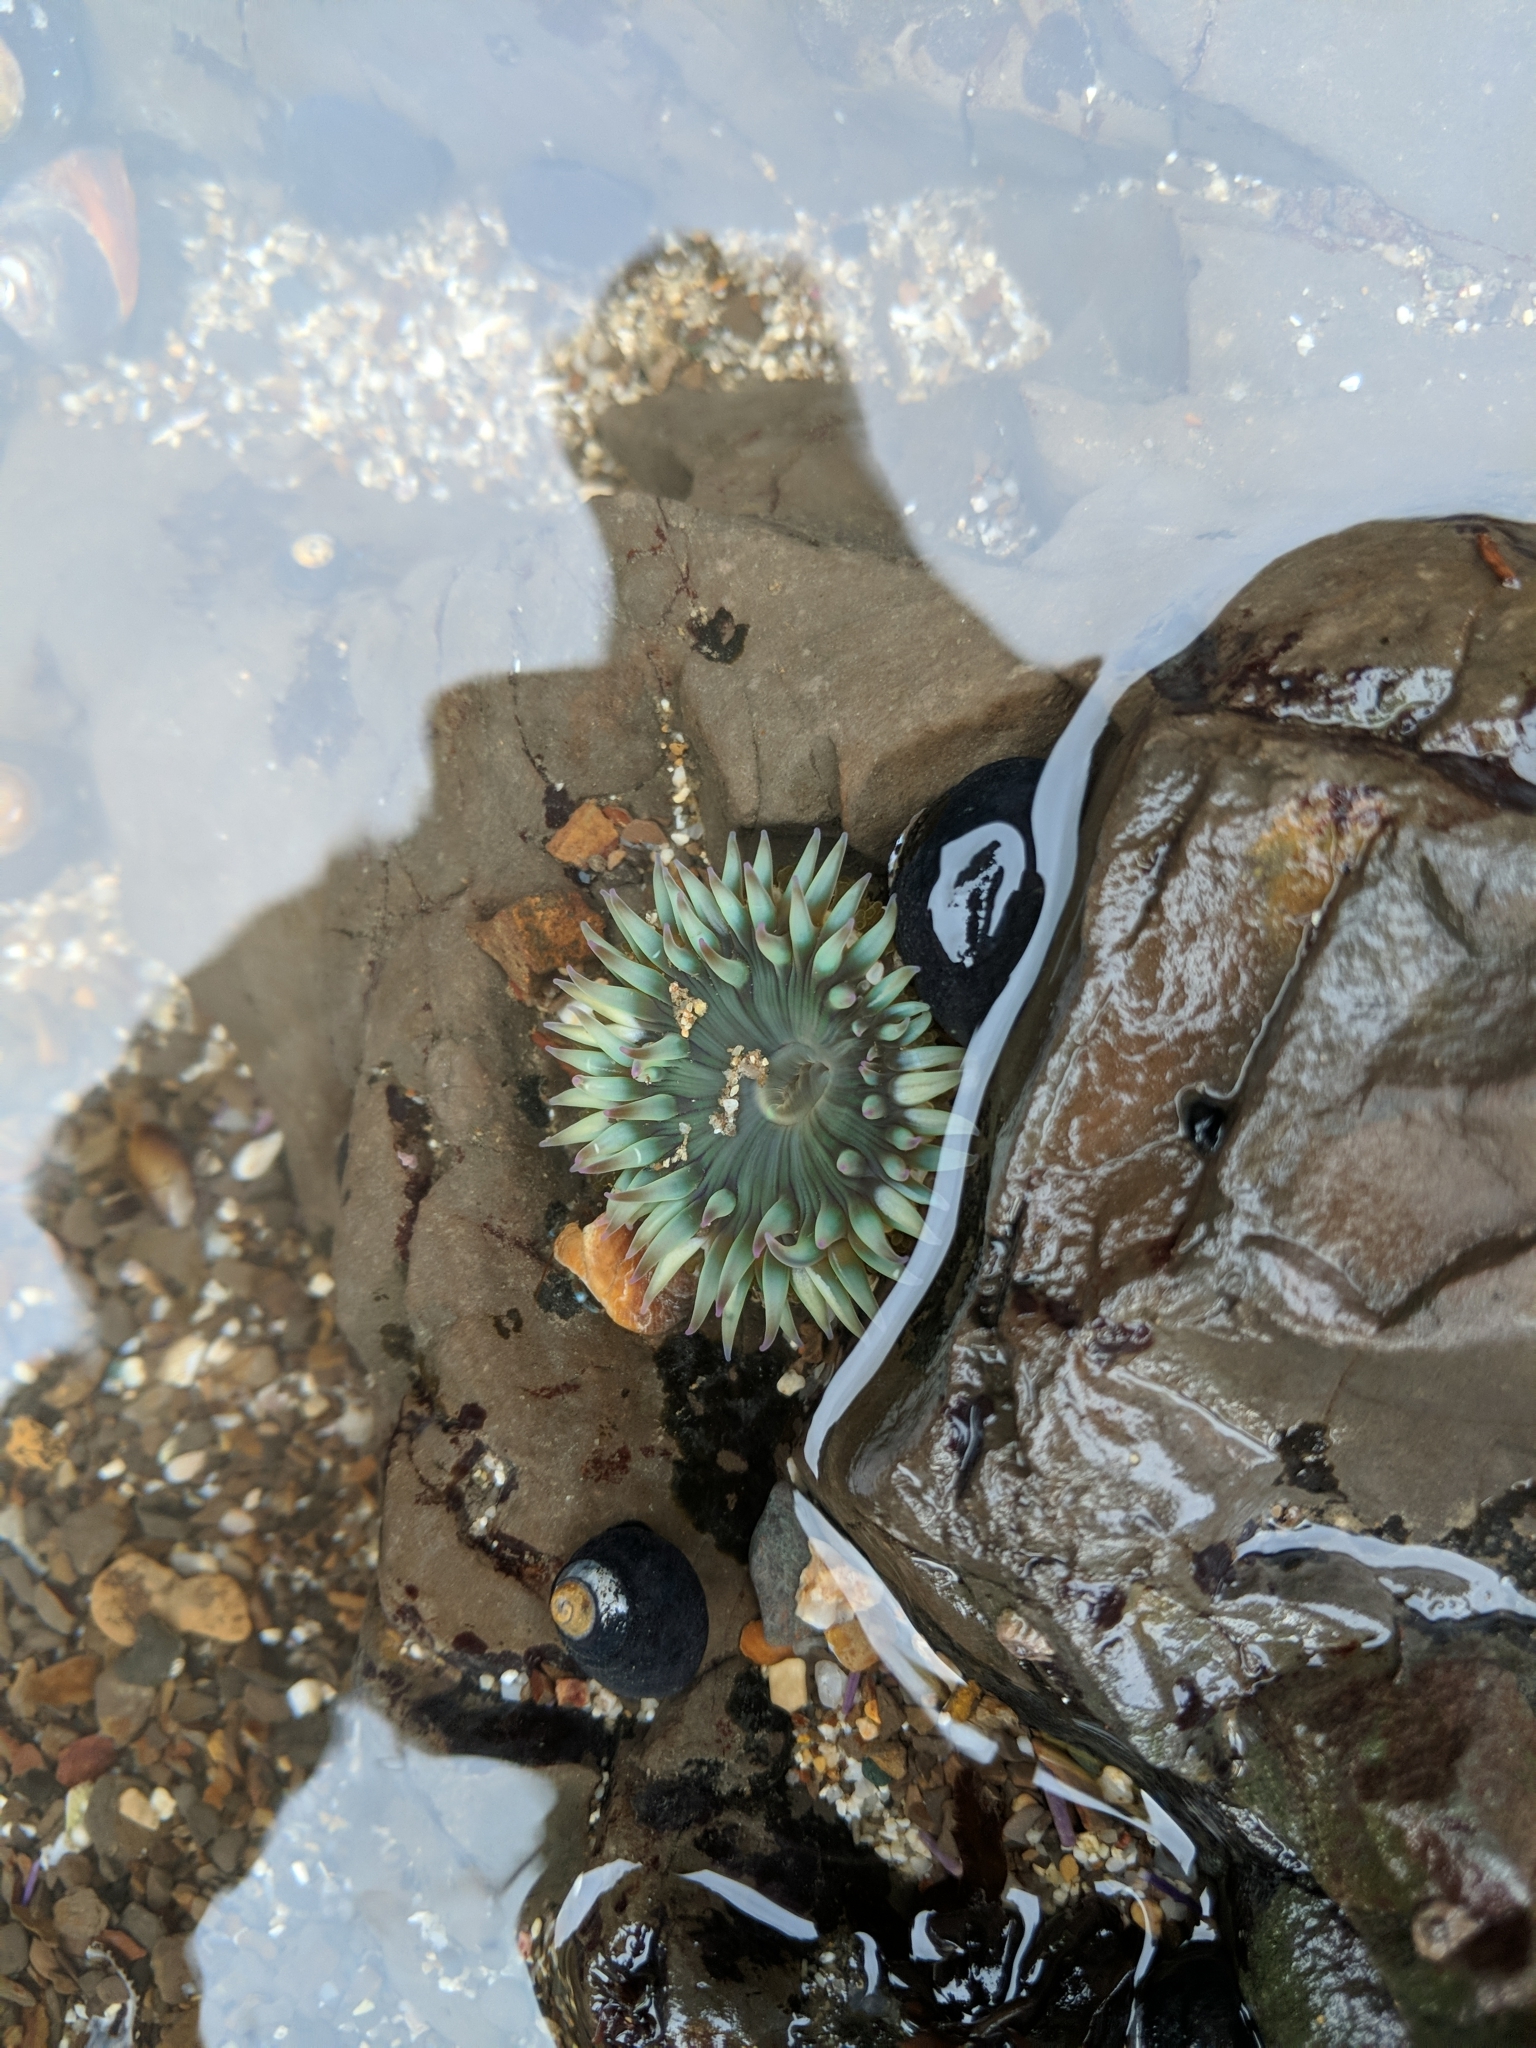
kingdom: Animalia
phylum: Cnidaria
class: Anthozoa
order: Actiniaria
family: Actiniidae
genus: Anthopleura
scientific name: Anthopleura sola
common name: Sun anemone
